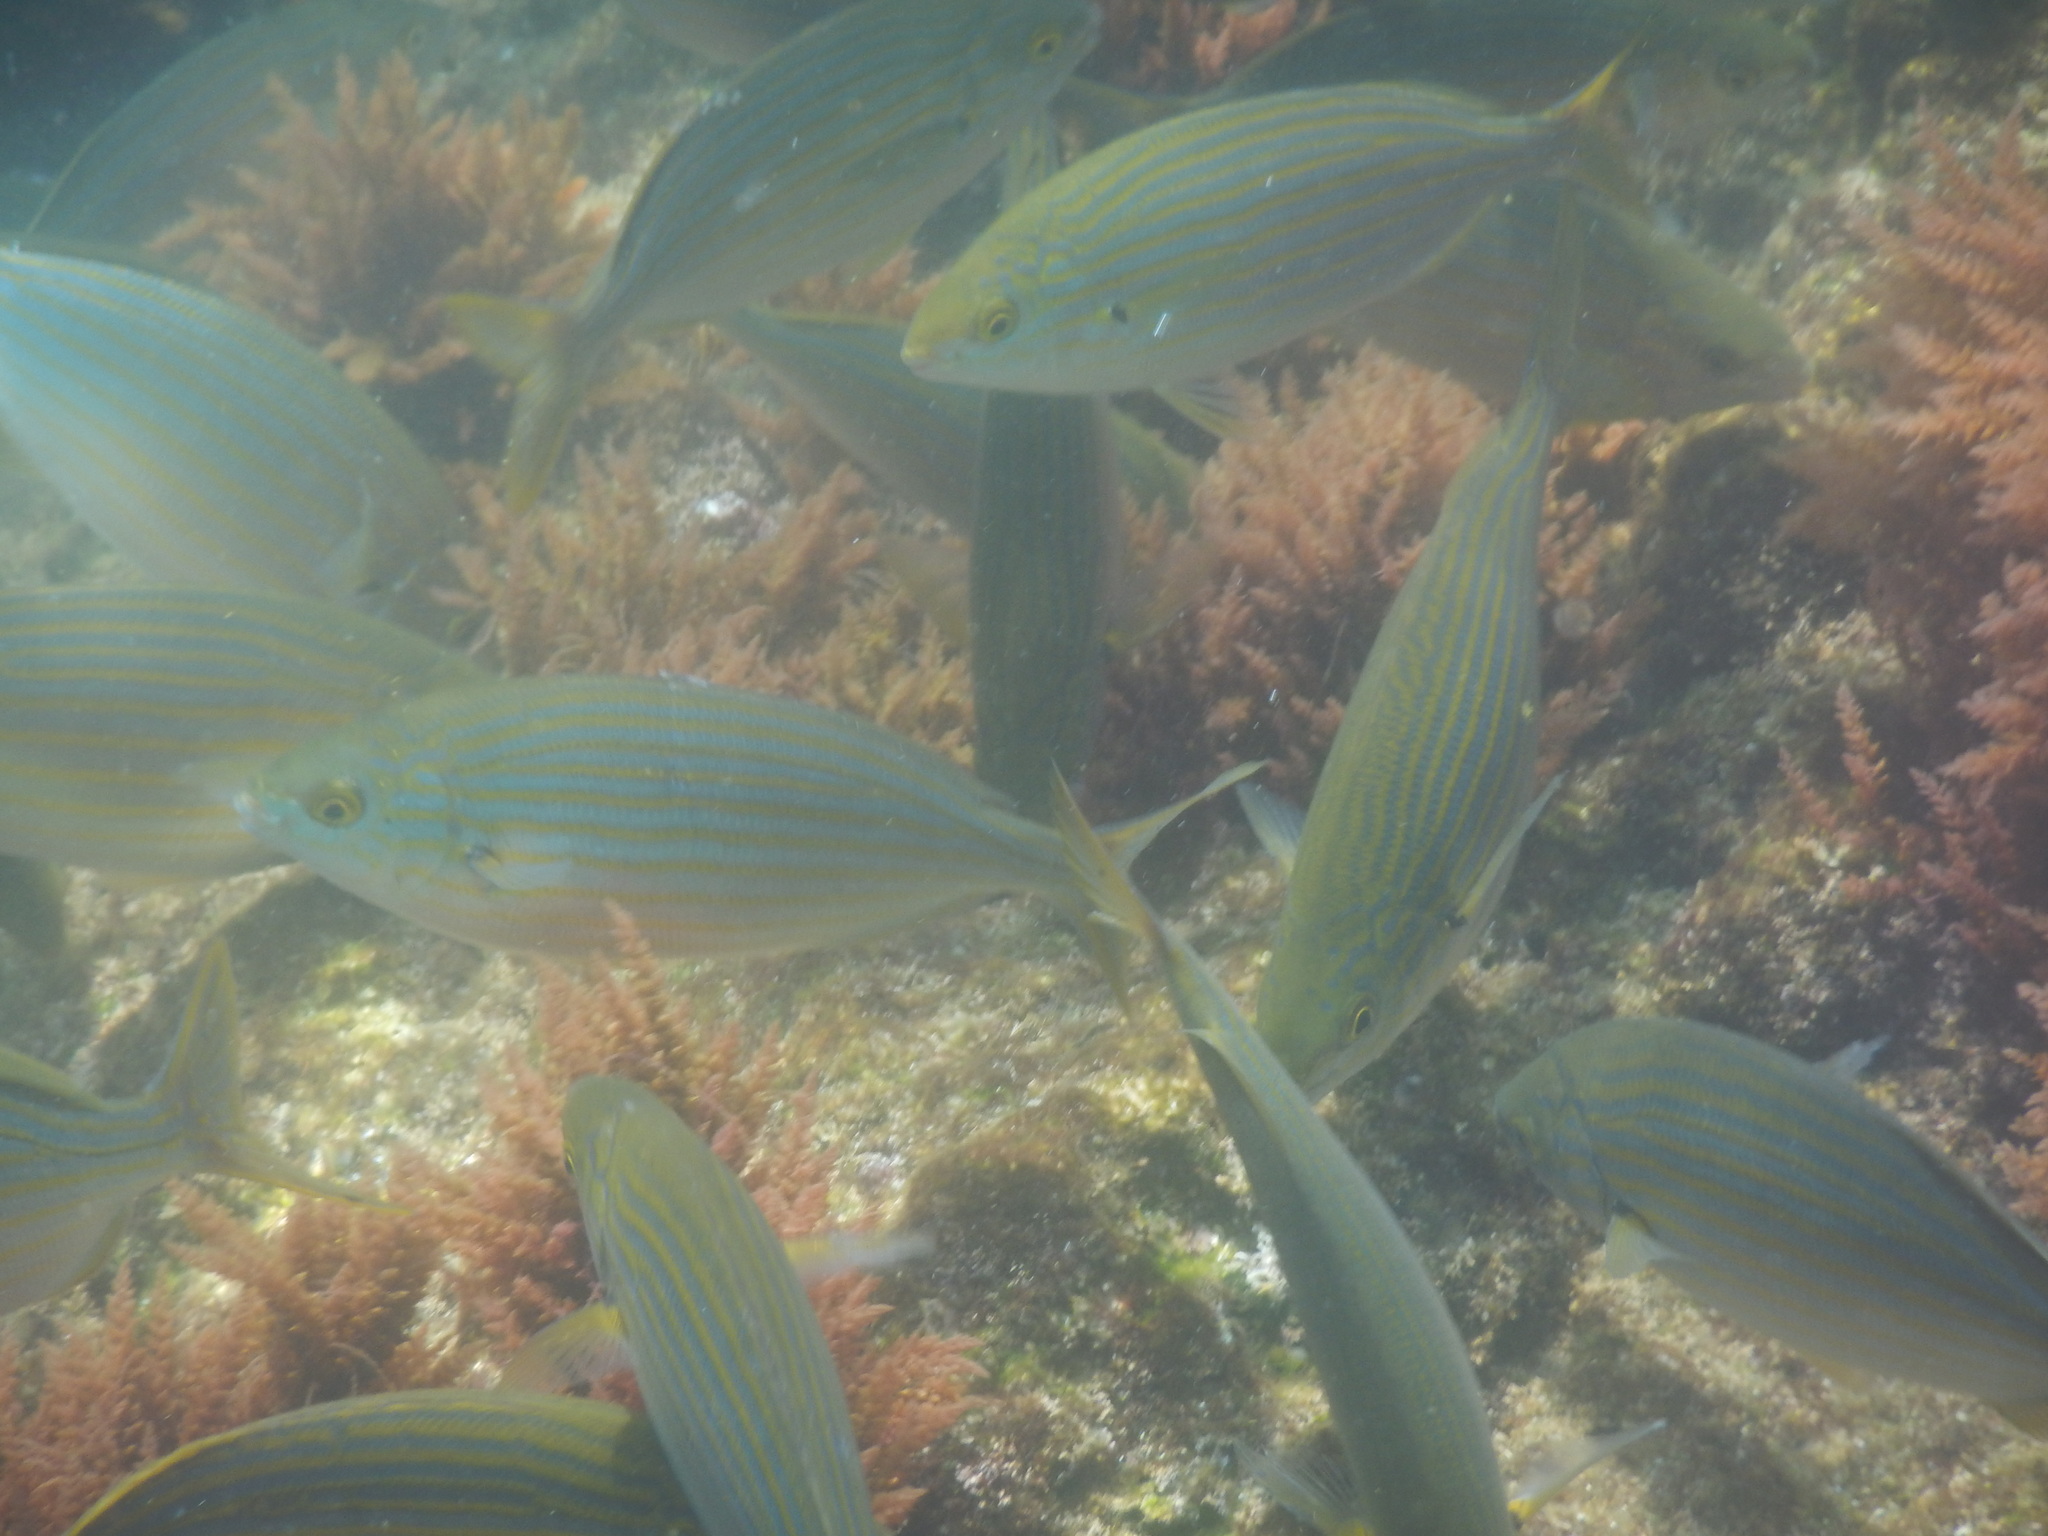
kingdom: Animalia
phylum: Chordata
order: Perciformes
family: Sparidae
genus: Sarpa
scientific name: Sarpa salpa
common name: Salema
